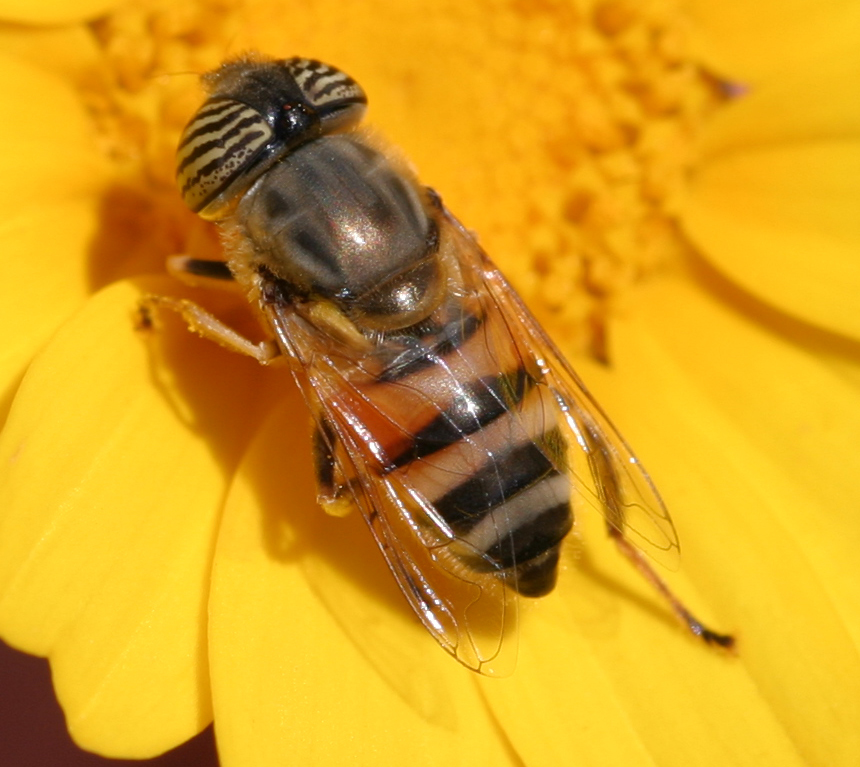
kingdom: Animalia
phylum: Arthropoda
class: Insecta
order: Diptera
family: Syrphidae
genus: Eristalinus
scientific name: Eristalinus taeniops
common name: Syrphid fly
